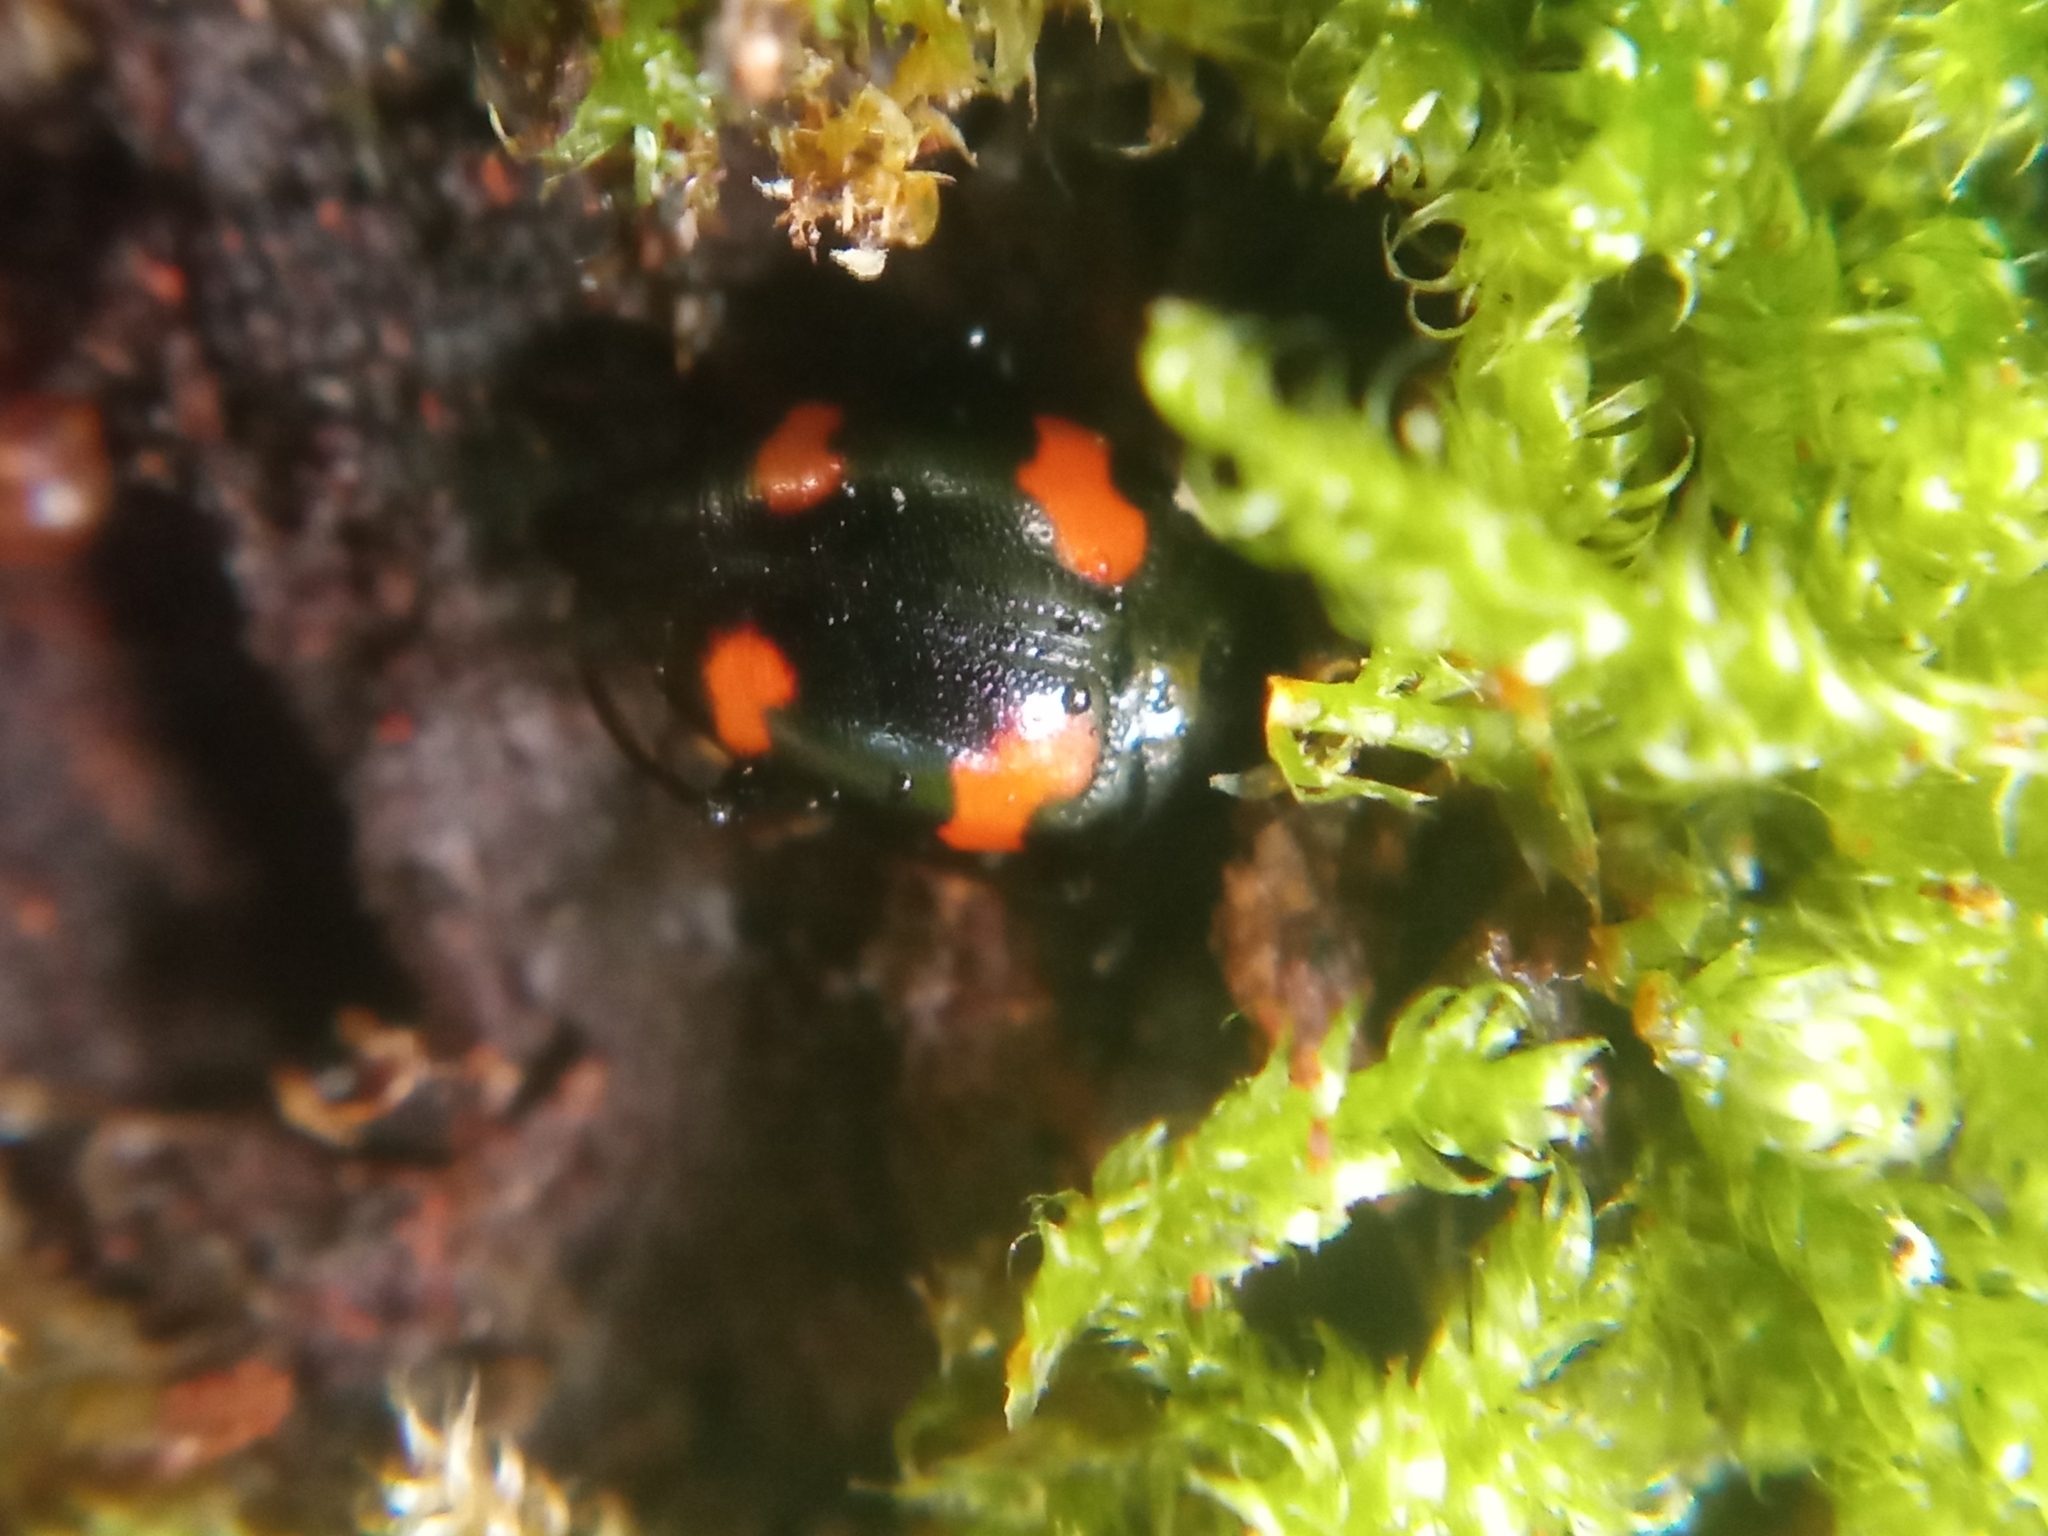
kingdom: Animalia
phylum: Arthropoda
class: Insecta
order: Coleoptera
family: Staphylinidae
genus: Scaphidium
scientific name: Scaphidium quadrimaculatum
